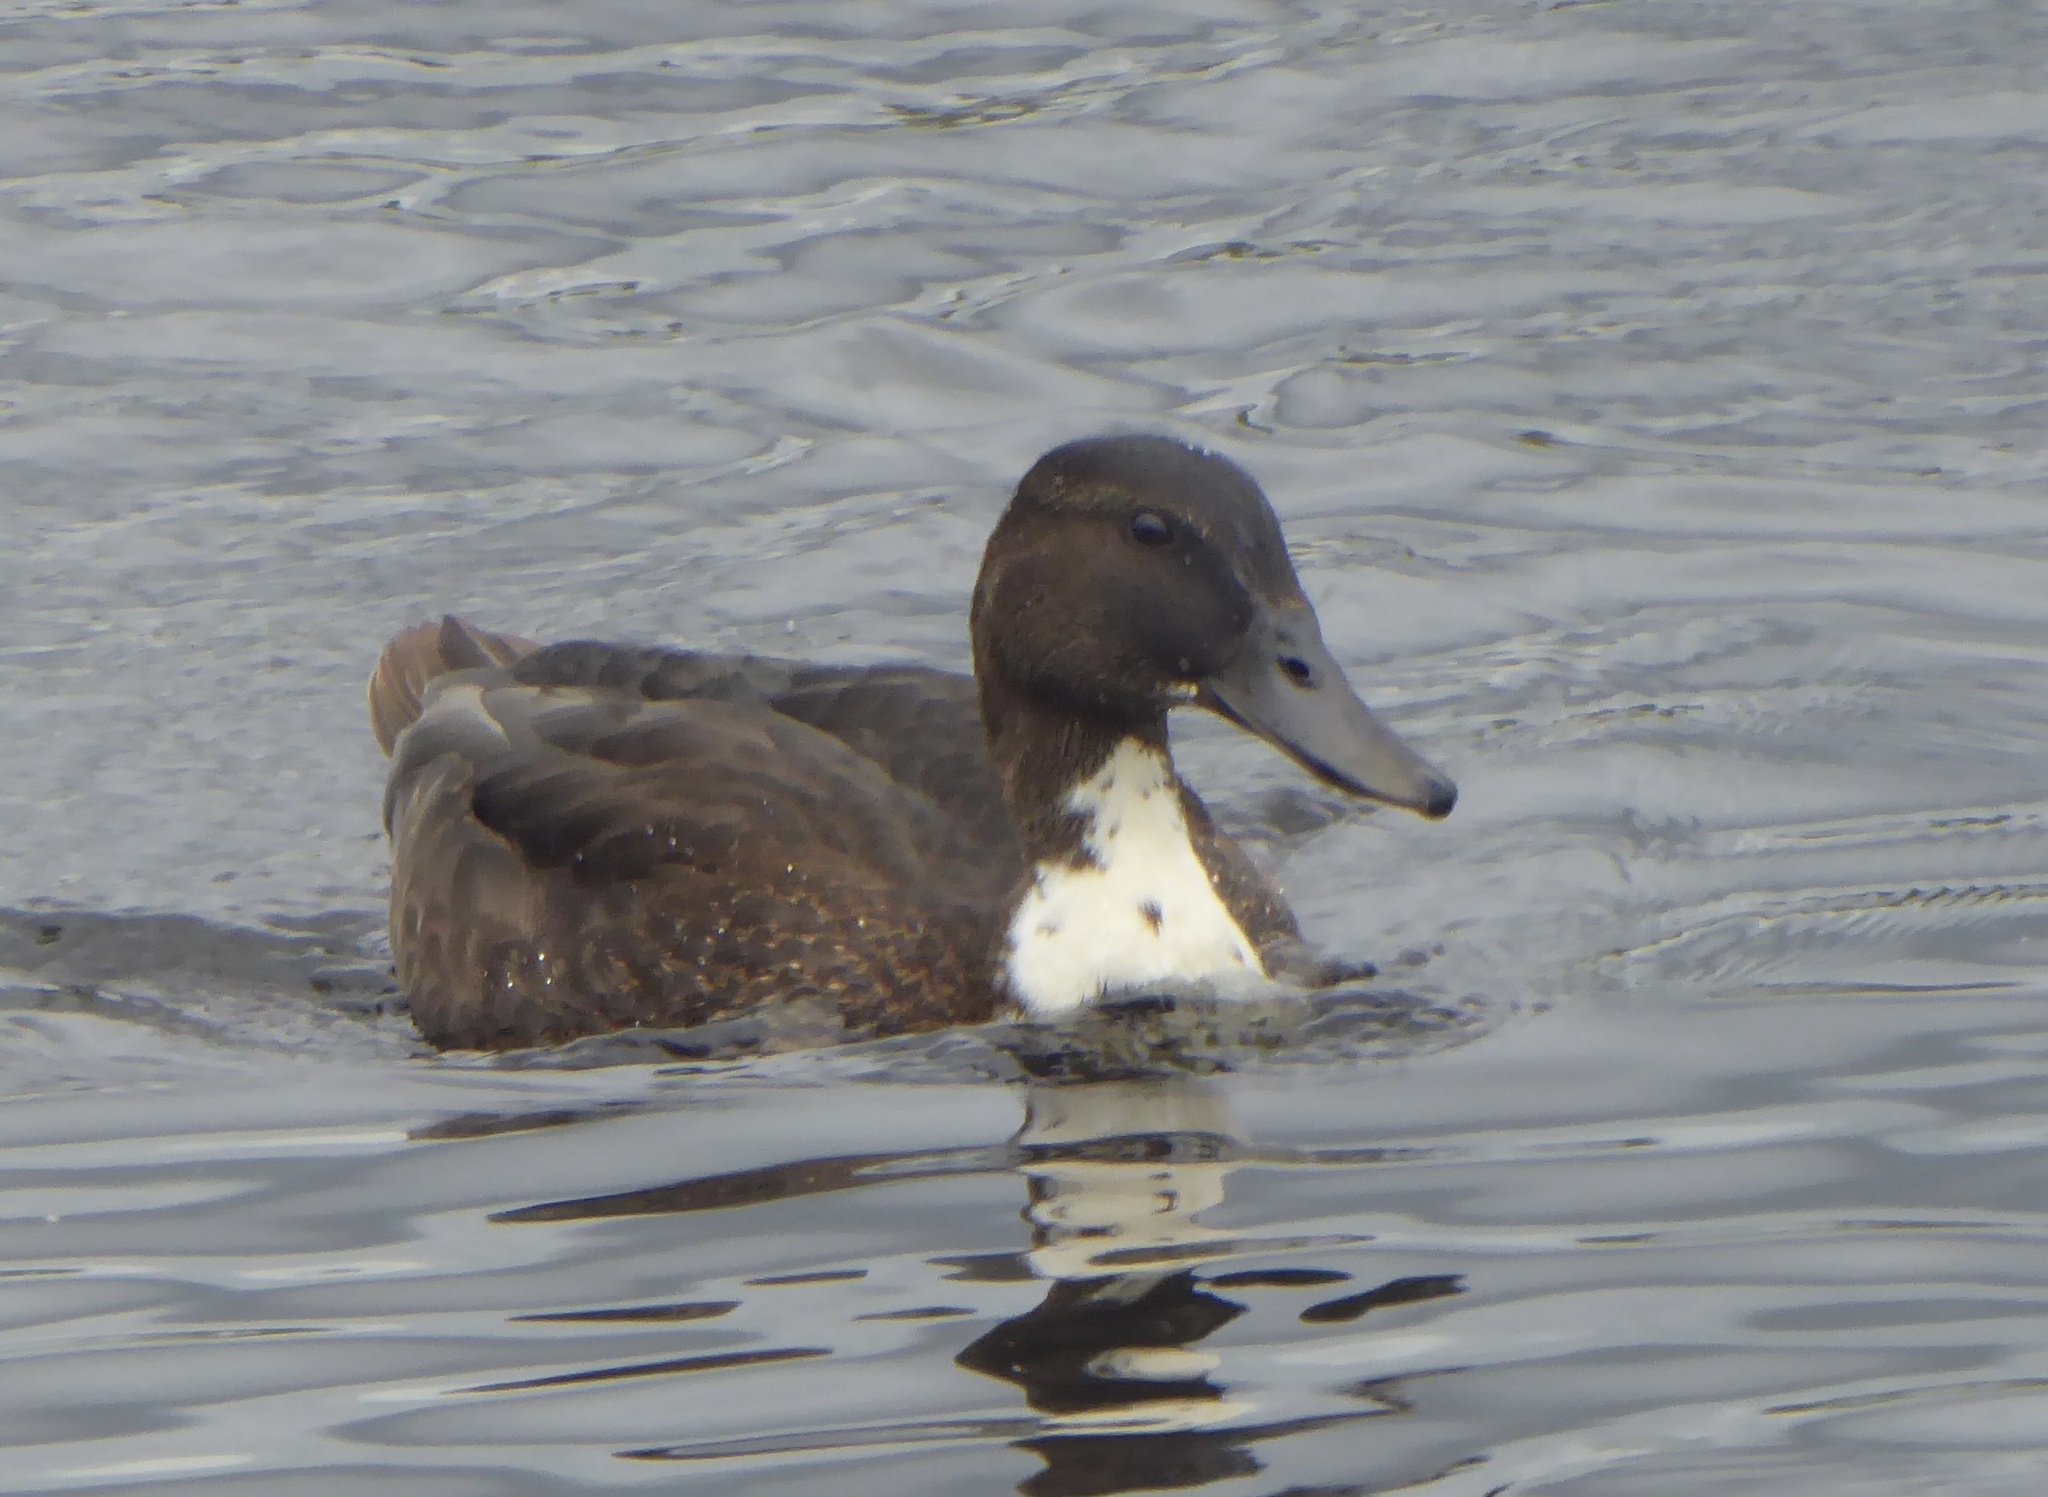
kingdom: Animalia
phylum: Chordata
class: Aves
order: Anseriformes
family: Anatidae
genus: Anas
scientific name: Anas platyrhynchos
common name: Mallard
